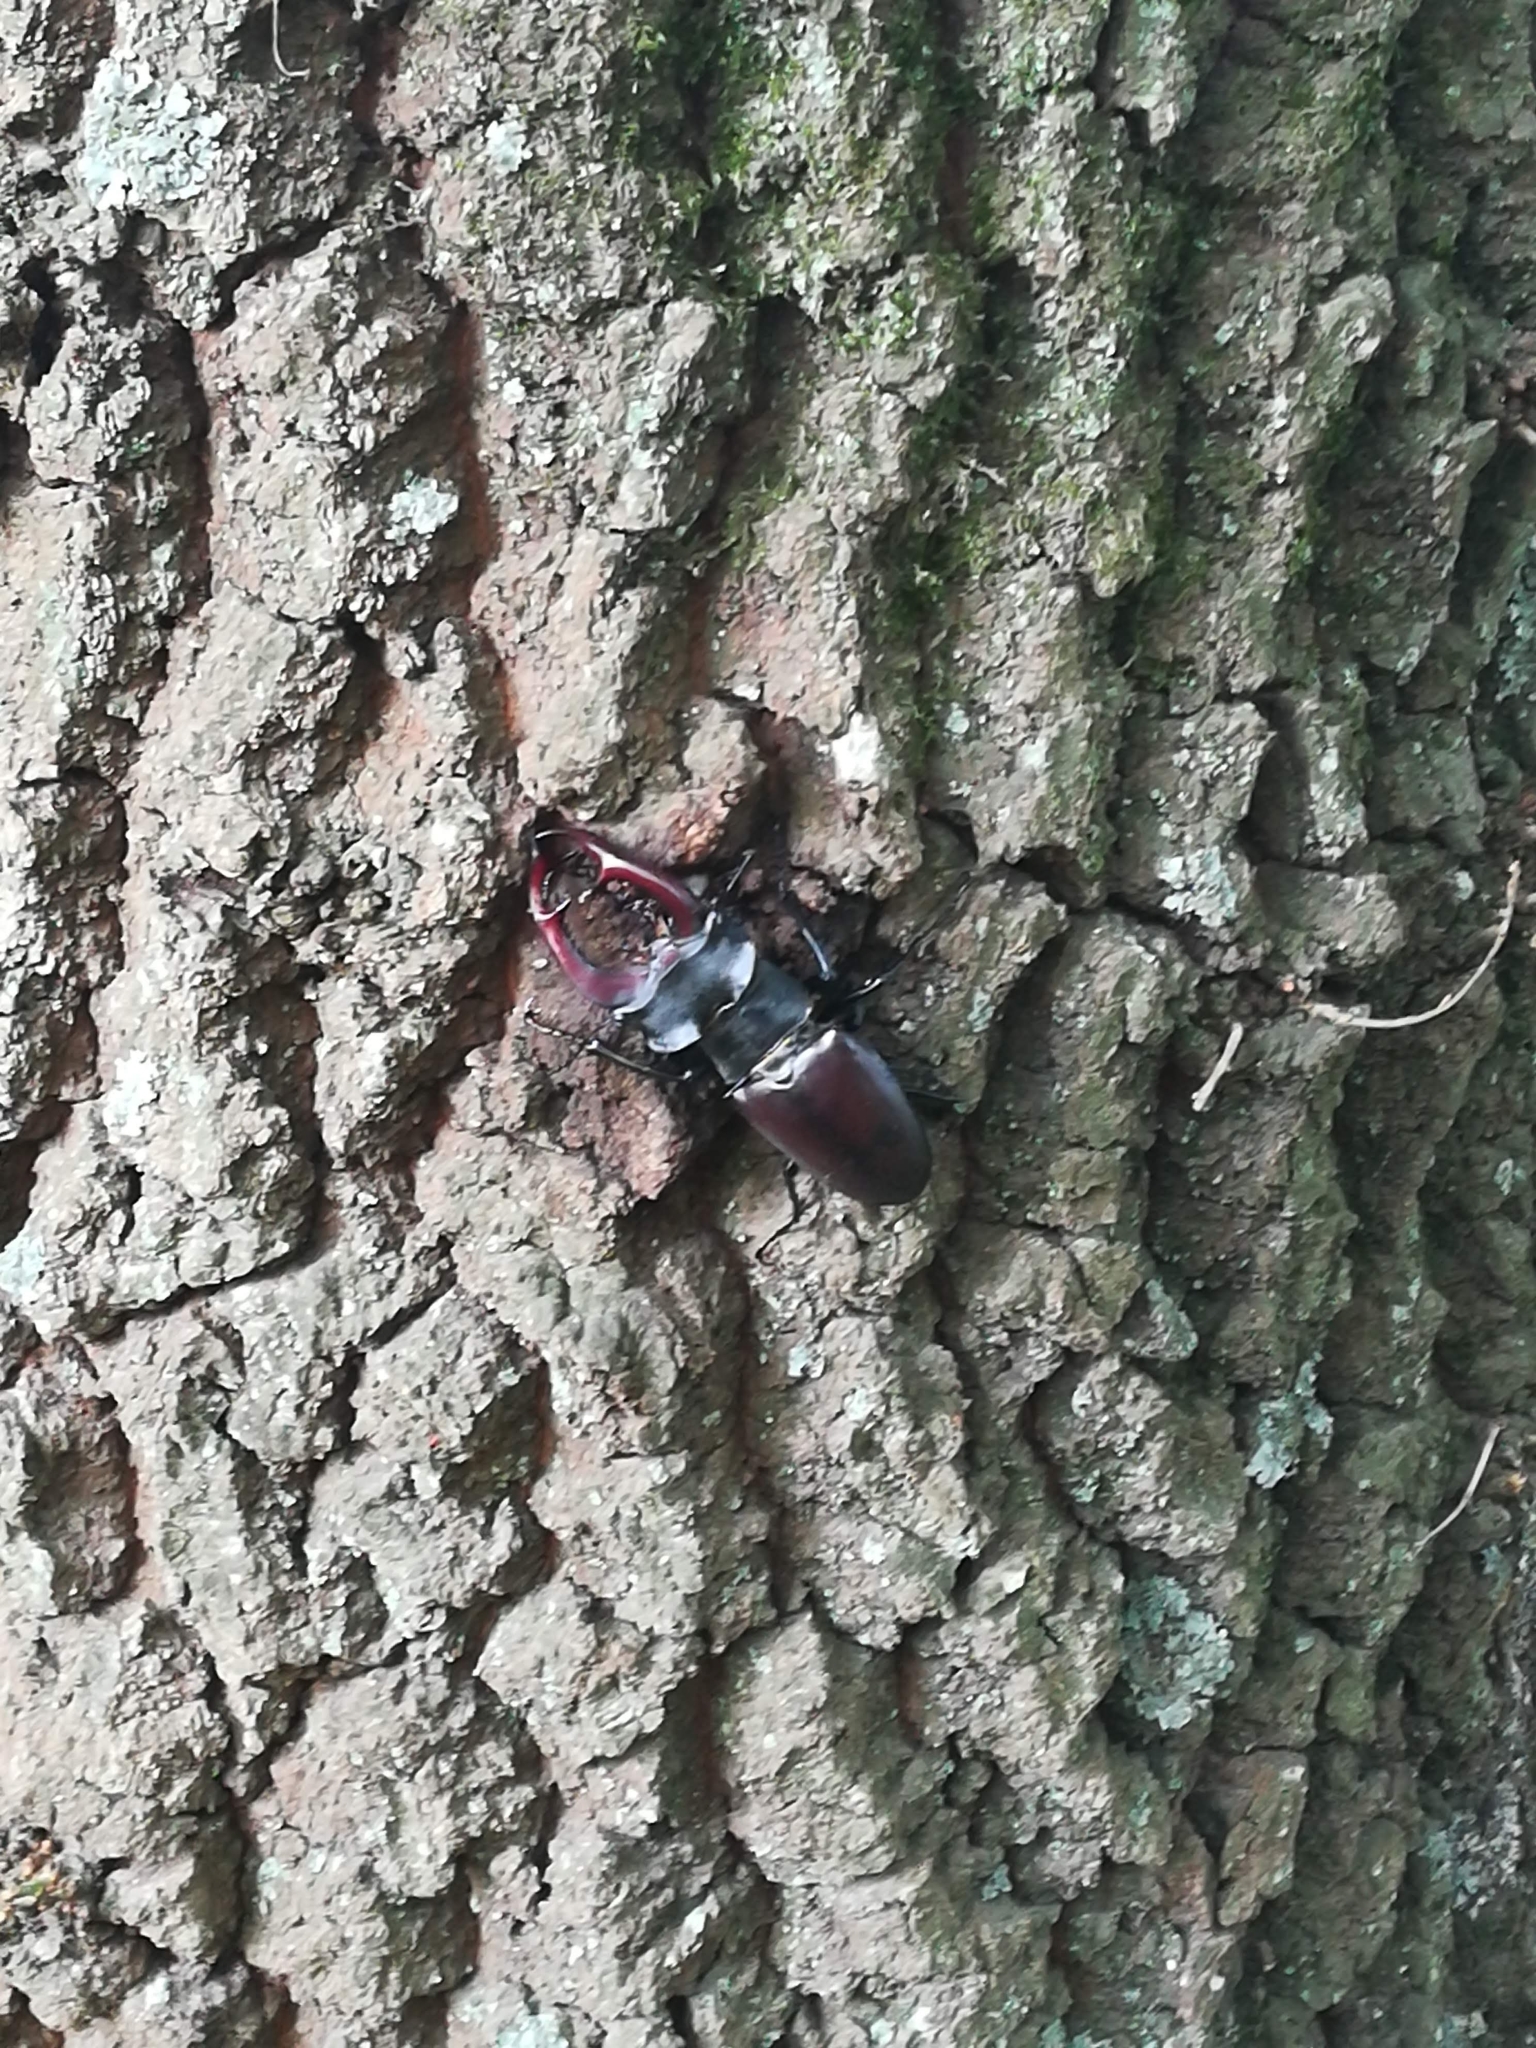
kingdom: Animalia
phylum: Arthropoda
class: Insecta
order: Coleoptera
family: Lucanidae
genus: Lucanus
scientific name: Lucanus cervus
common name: Stag beetle
